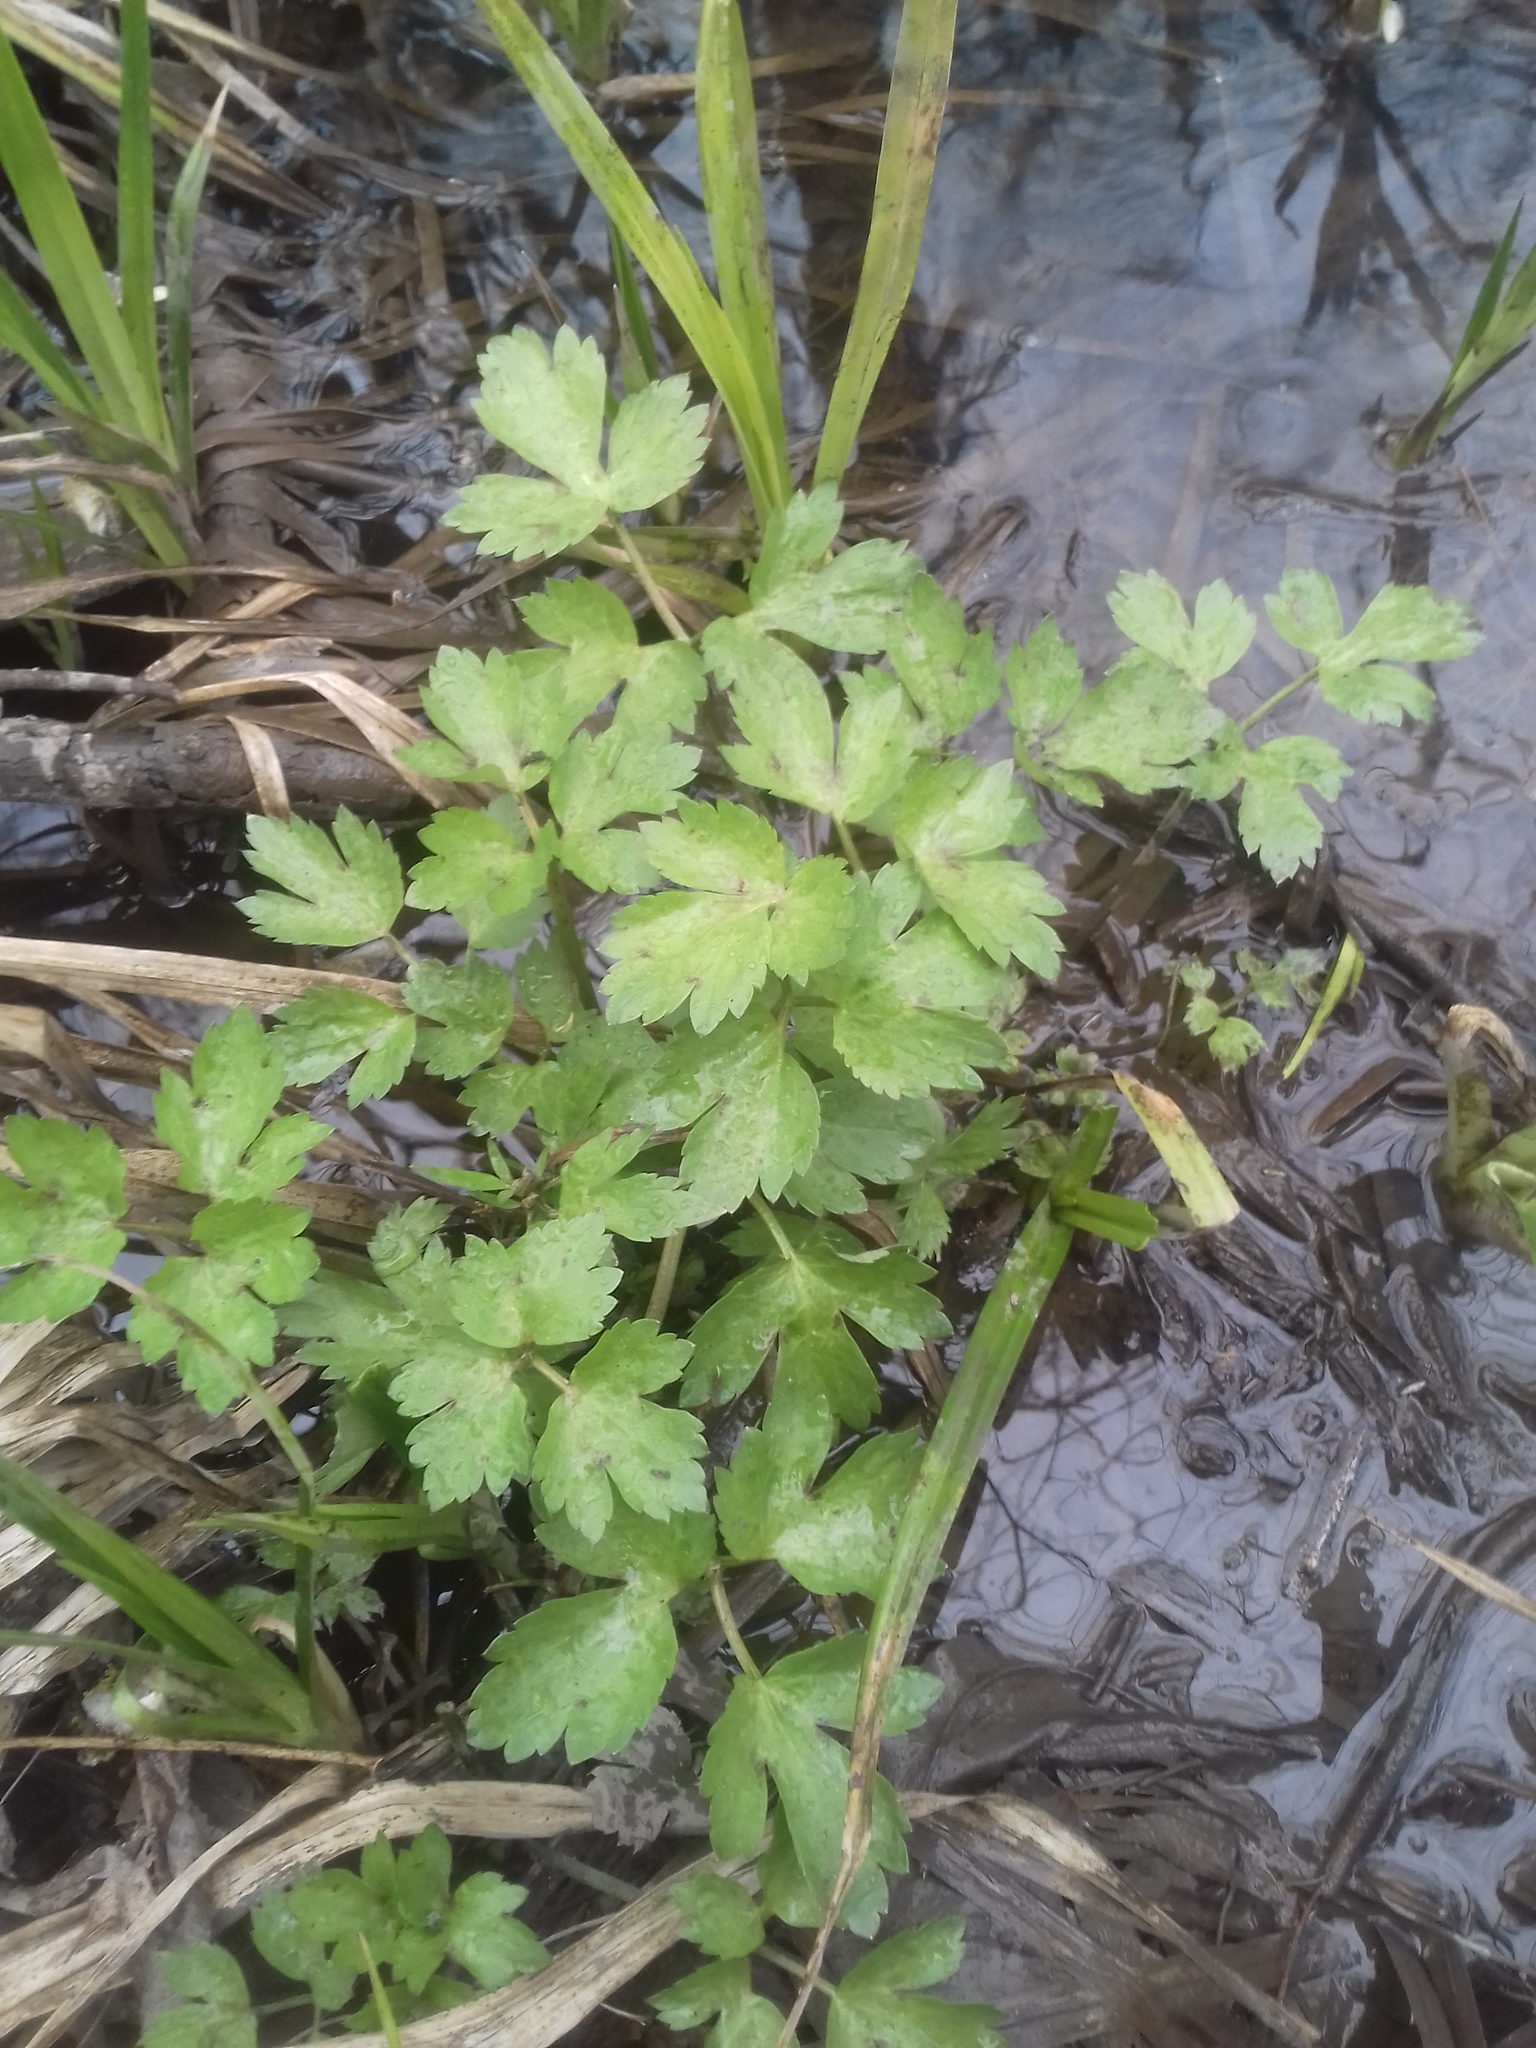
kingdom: Plantae
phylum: Tracheophyta
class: Magnoliopsida
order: Ranunculales
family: Ranunculaceae
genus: Ranunculus
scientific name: Ranunculus repens
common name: Creeping buttercup
